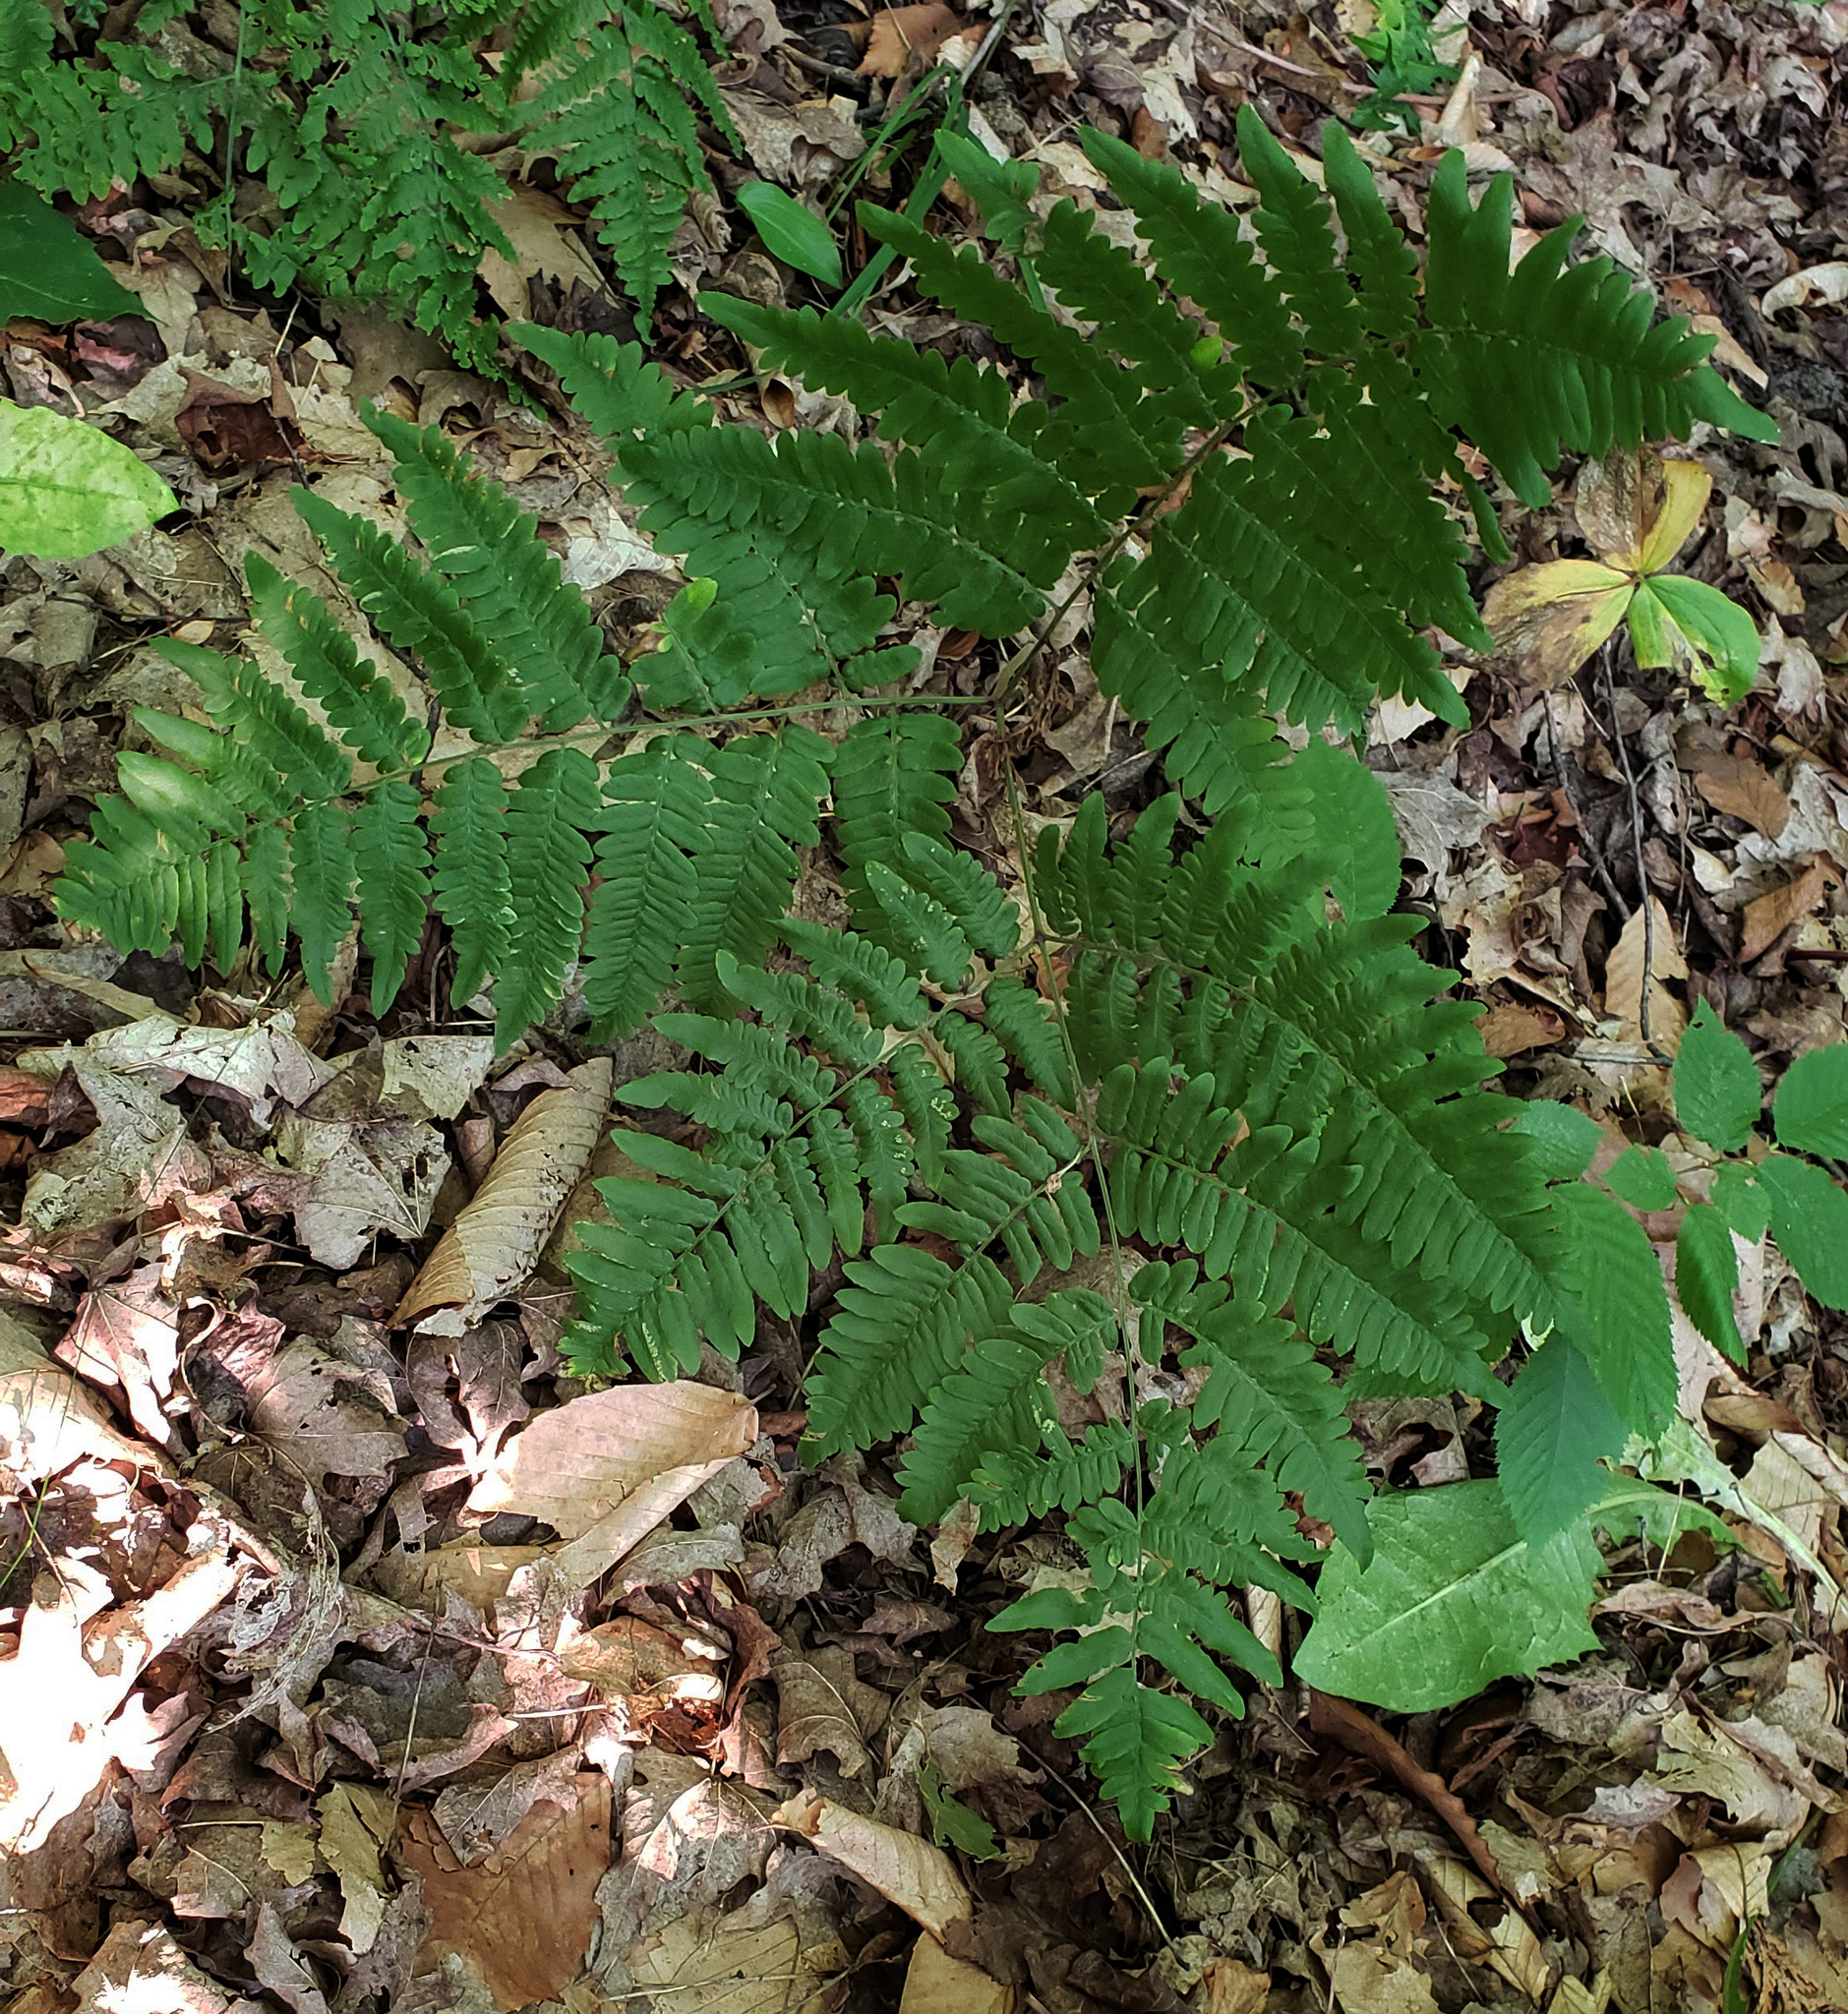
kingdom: Plantae
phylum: Tracheophyta
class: Polypodiopsida
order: Polypodiales
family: Dennstaedtiaceae
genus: Pteridium
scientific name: Pteridium aquilinum
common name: Bracken
